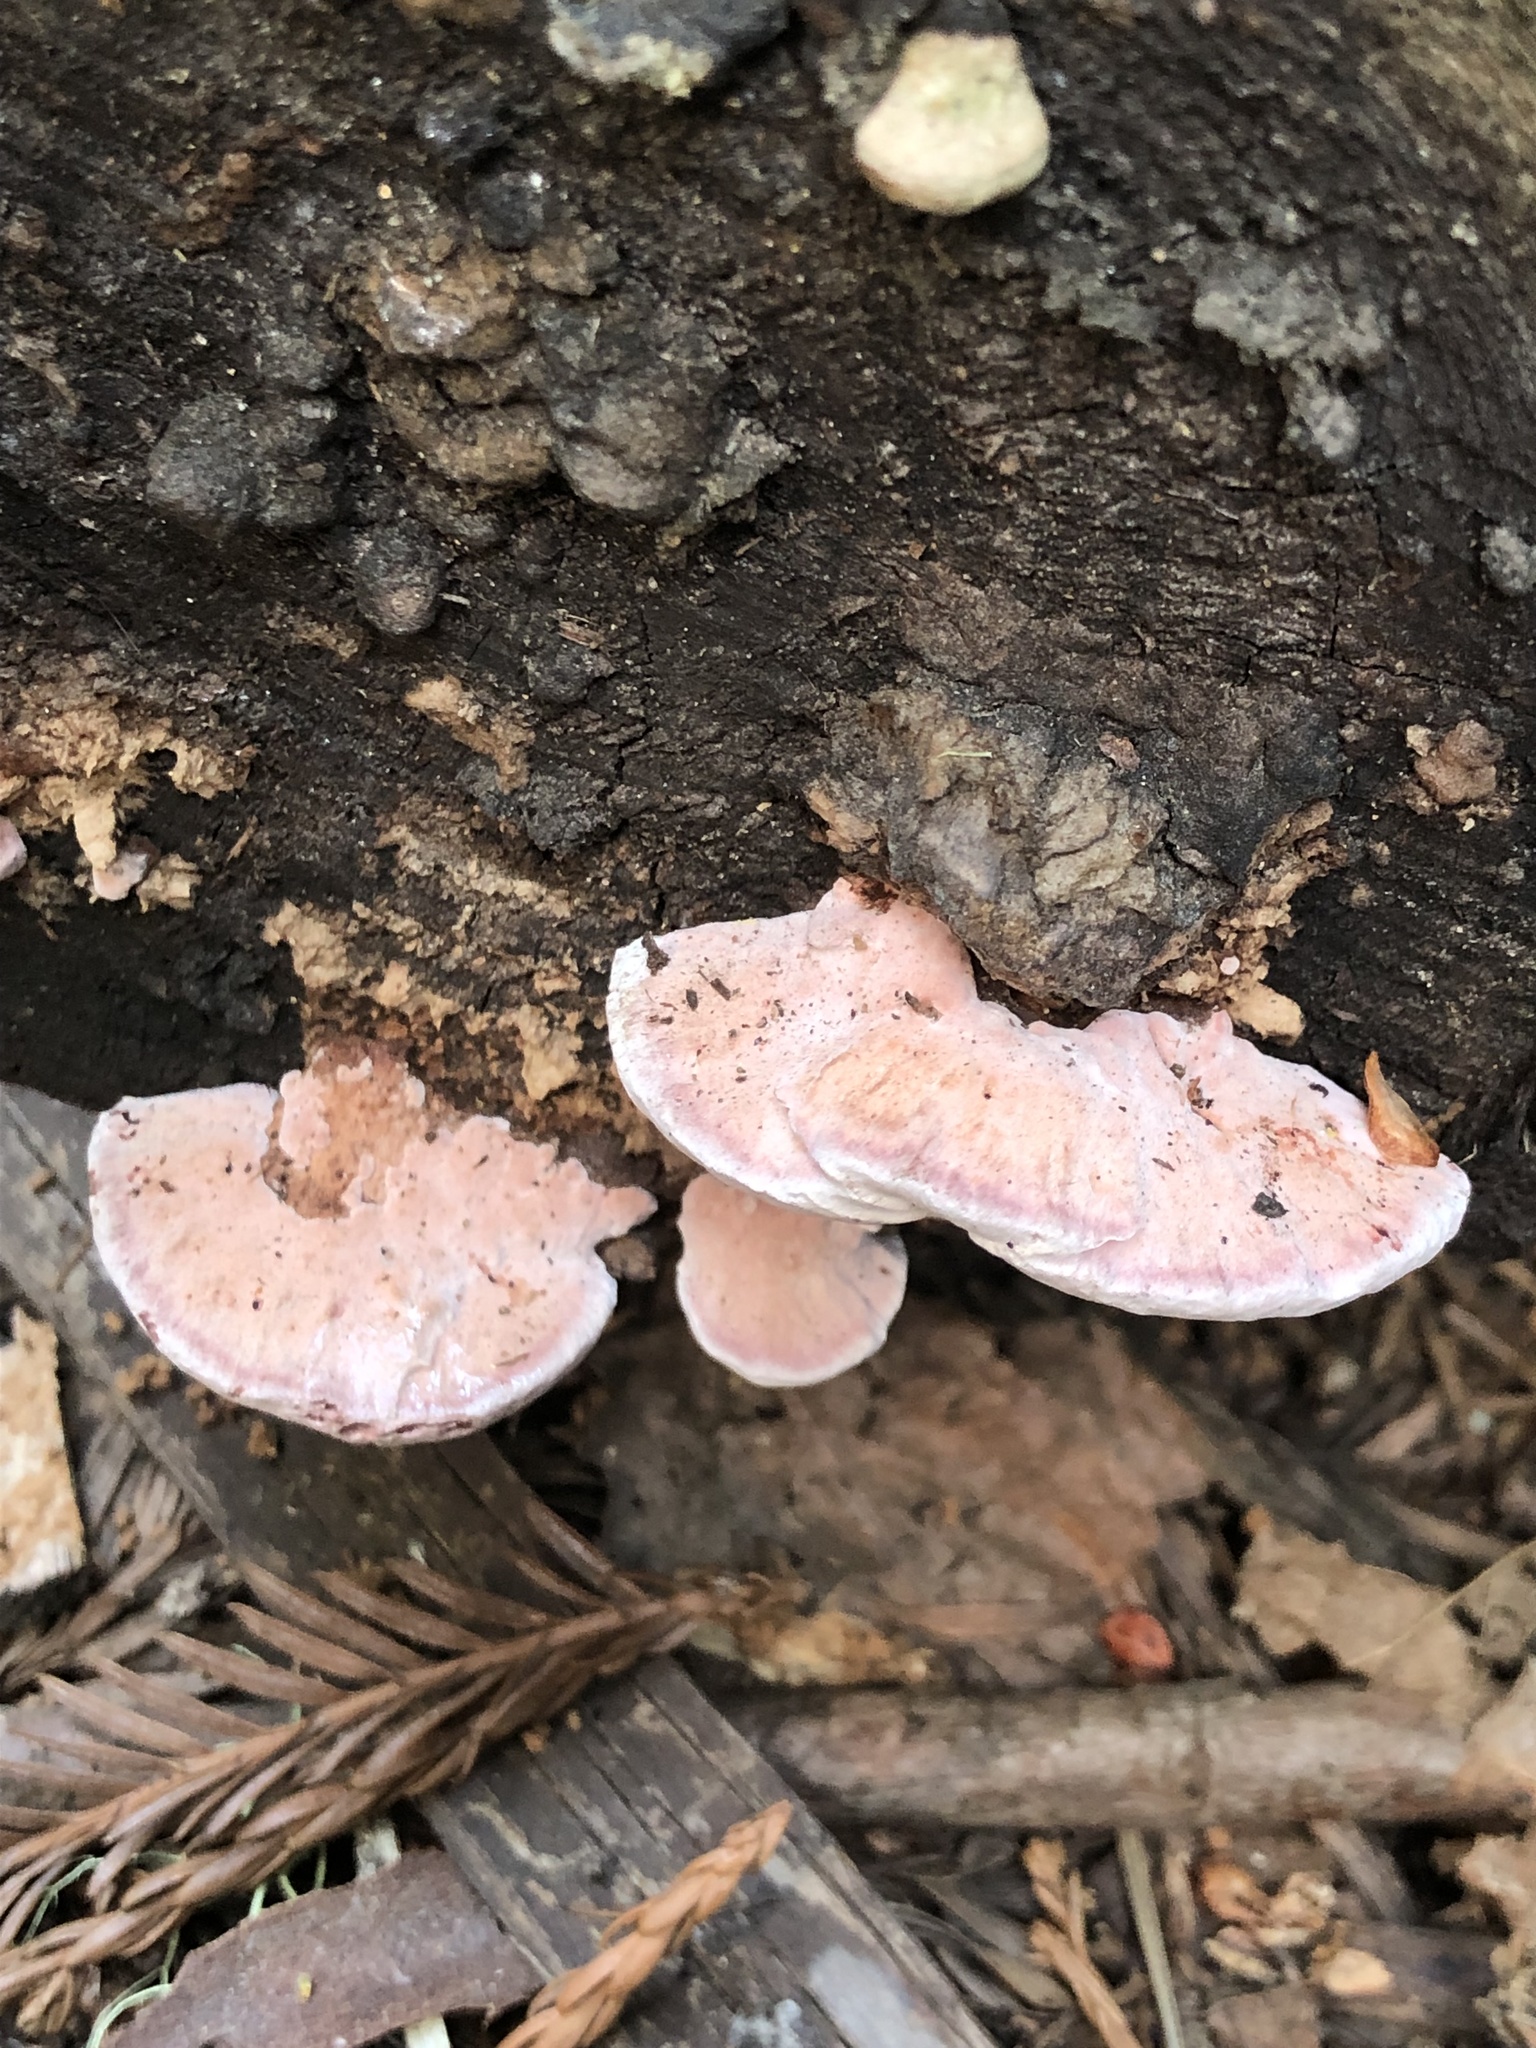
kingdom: Fungi
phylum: Basidiomycota
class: Agaricomycetes
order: Polyporales
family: Fomitopsidaceae
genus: Rhodofomes
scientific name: Rhodofomes cajanderi
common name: Rosy conk
